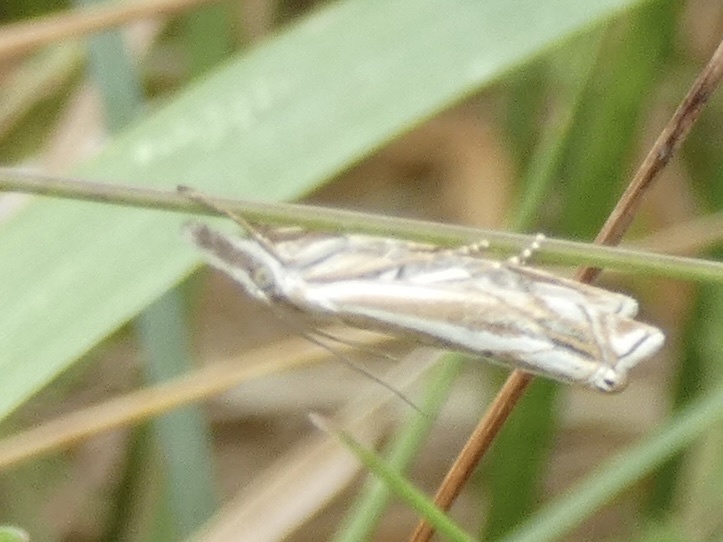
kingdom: Animalia
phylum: Arthropoda
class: Insecta
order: Lepidoptera
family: Crambidae
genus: Crambus
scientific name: Crambus nemorella
